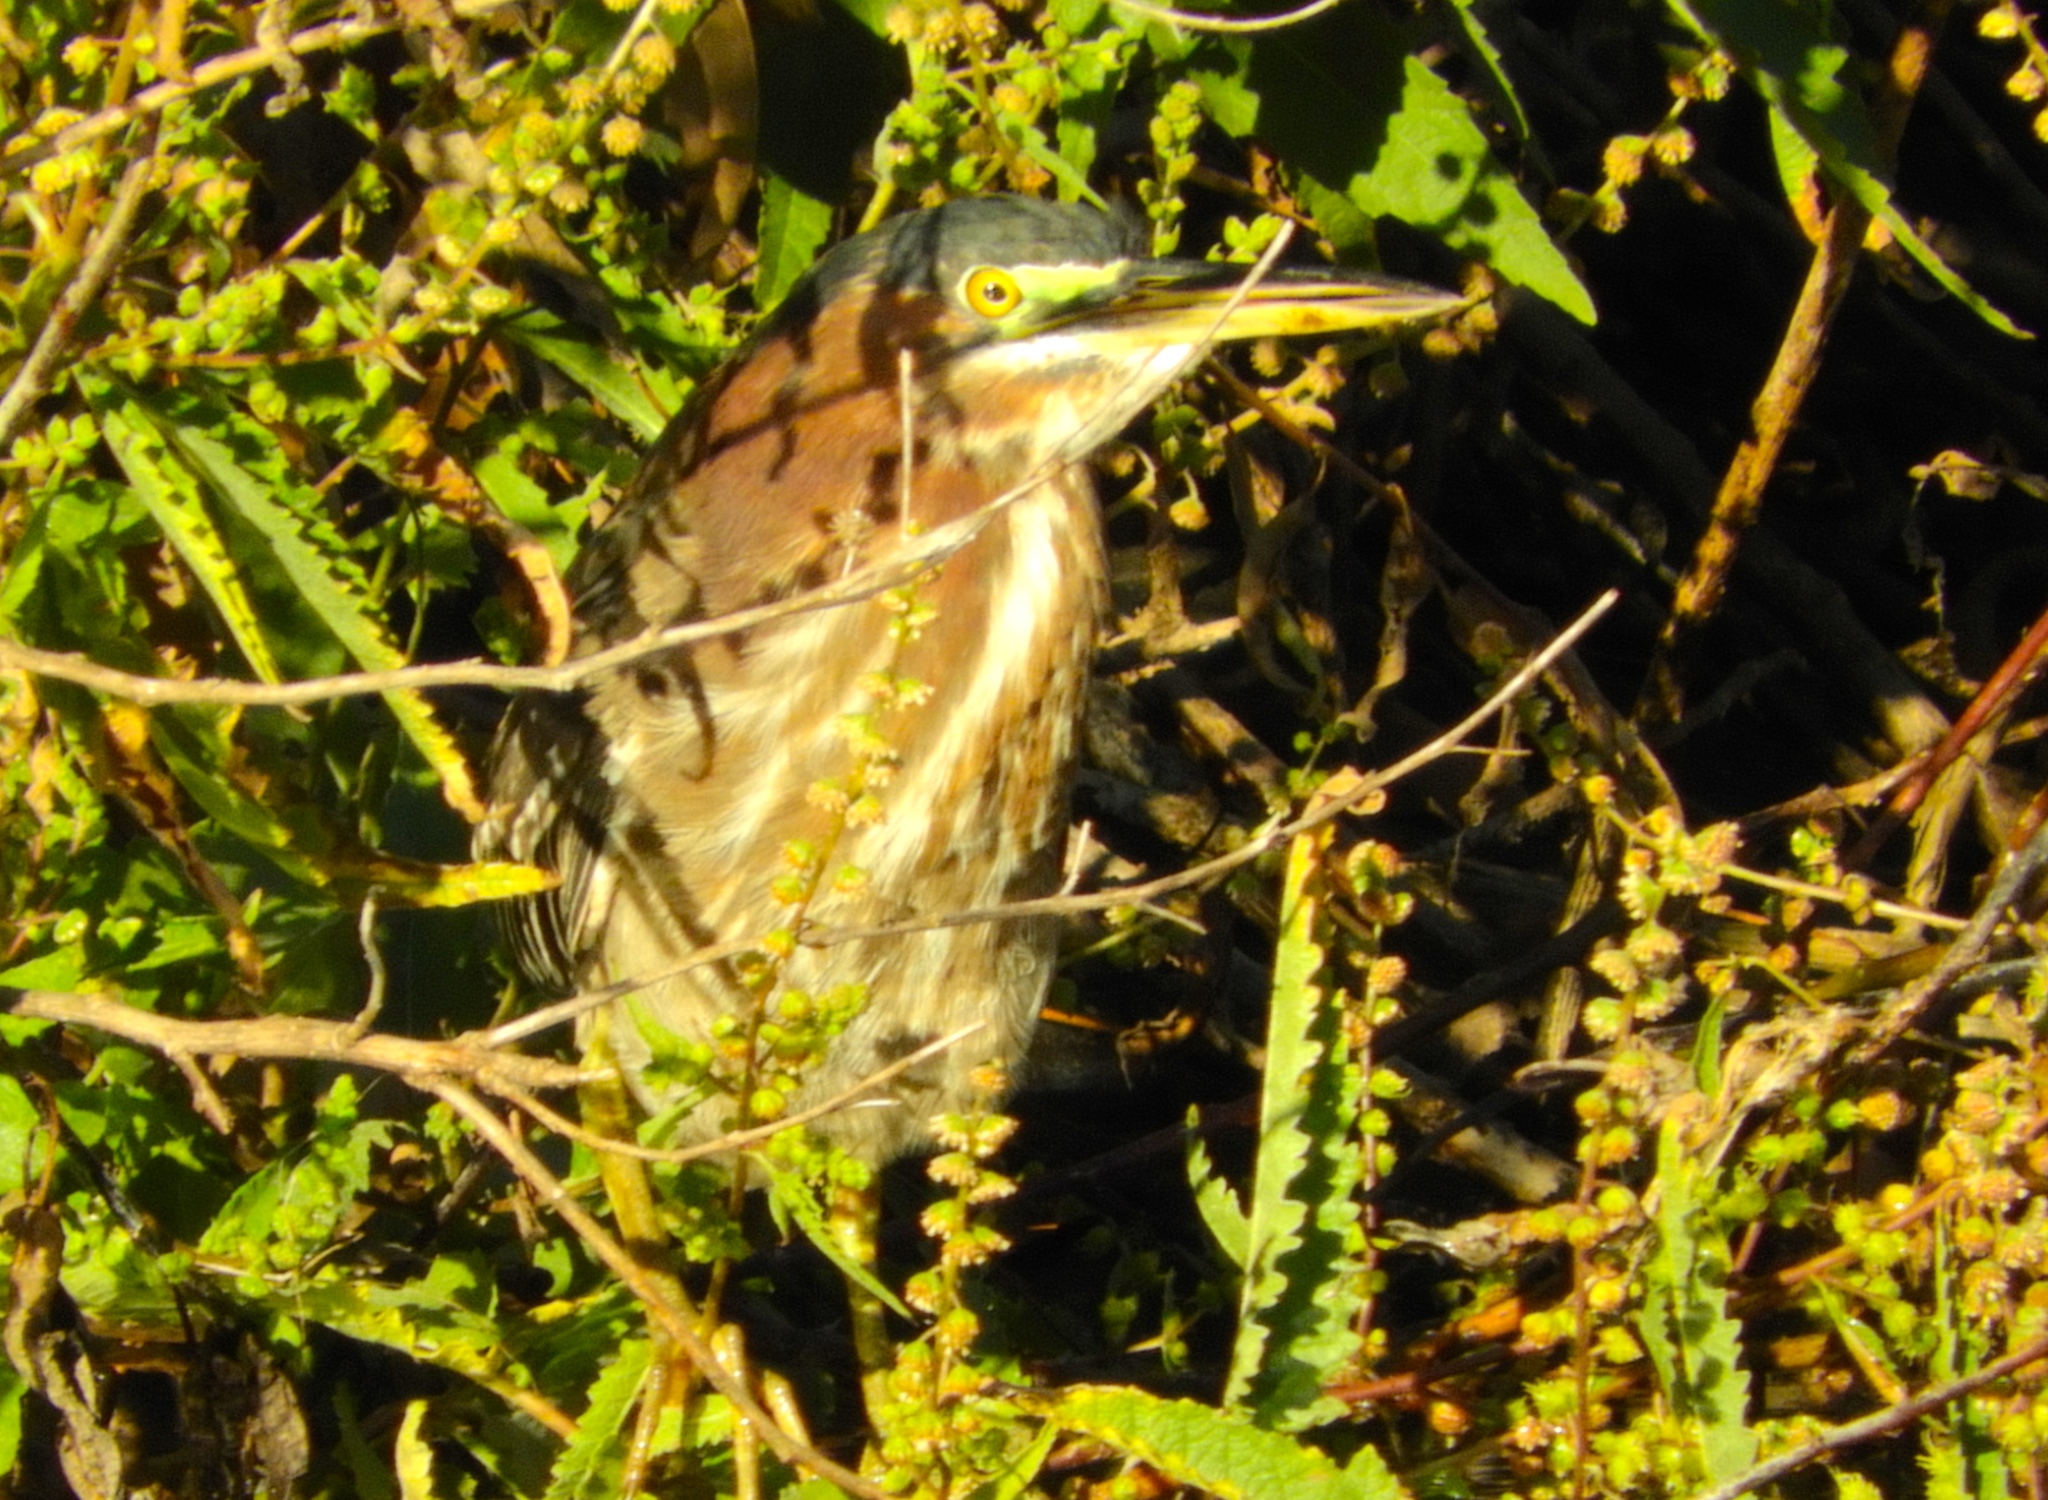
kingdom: Animalia
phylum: Chordata
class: Aves
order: Pelecaniformes
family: Ardeidae
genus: Butorides
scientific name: Butorides virescens
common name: Green heron
